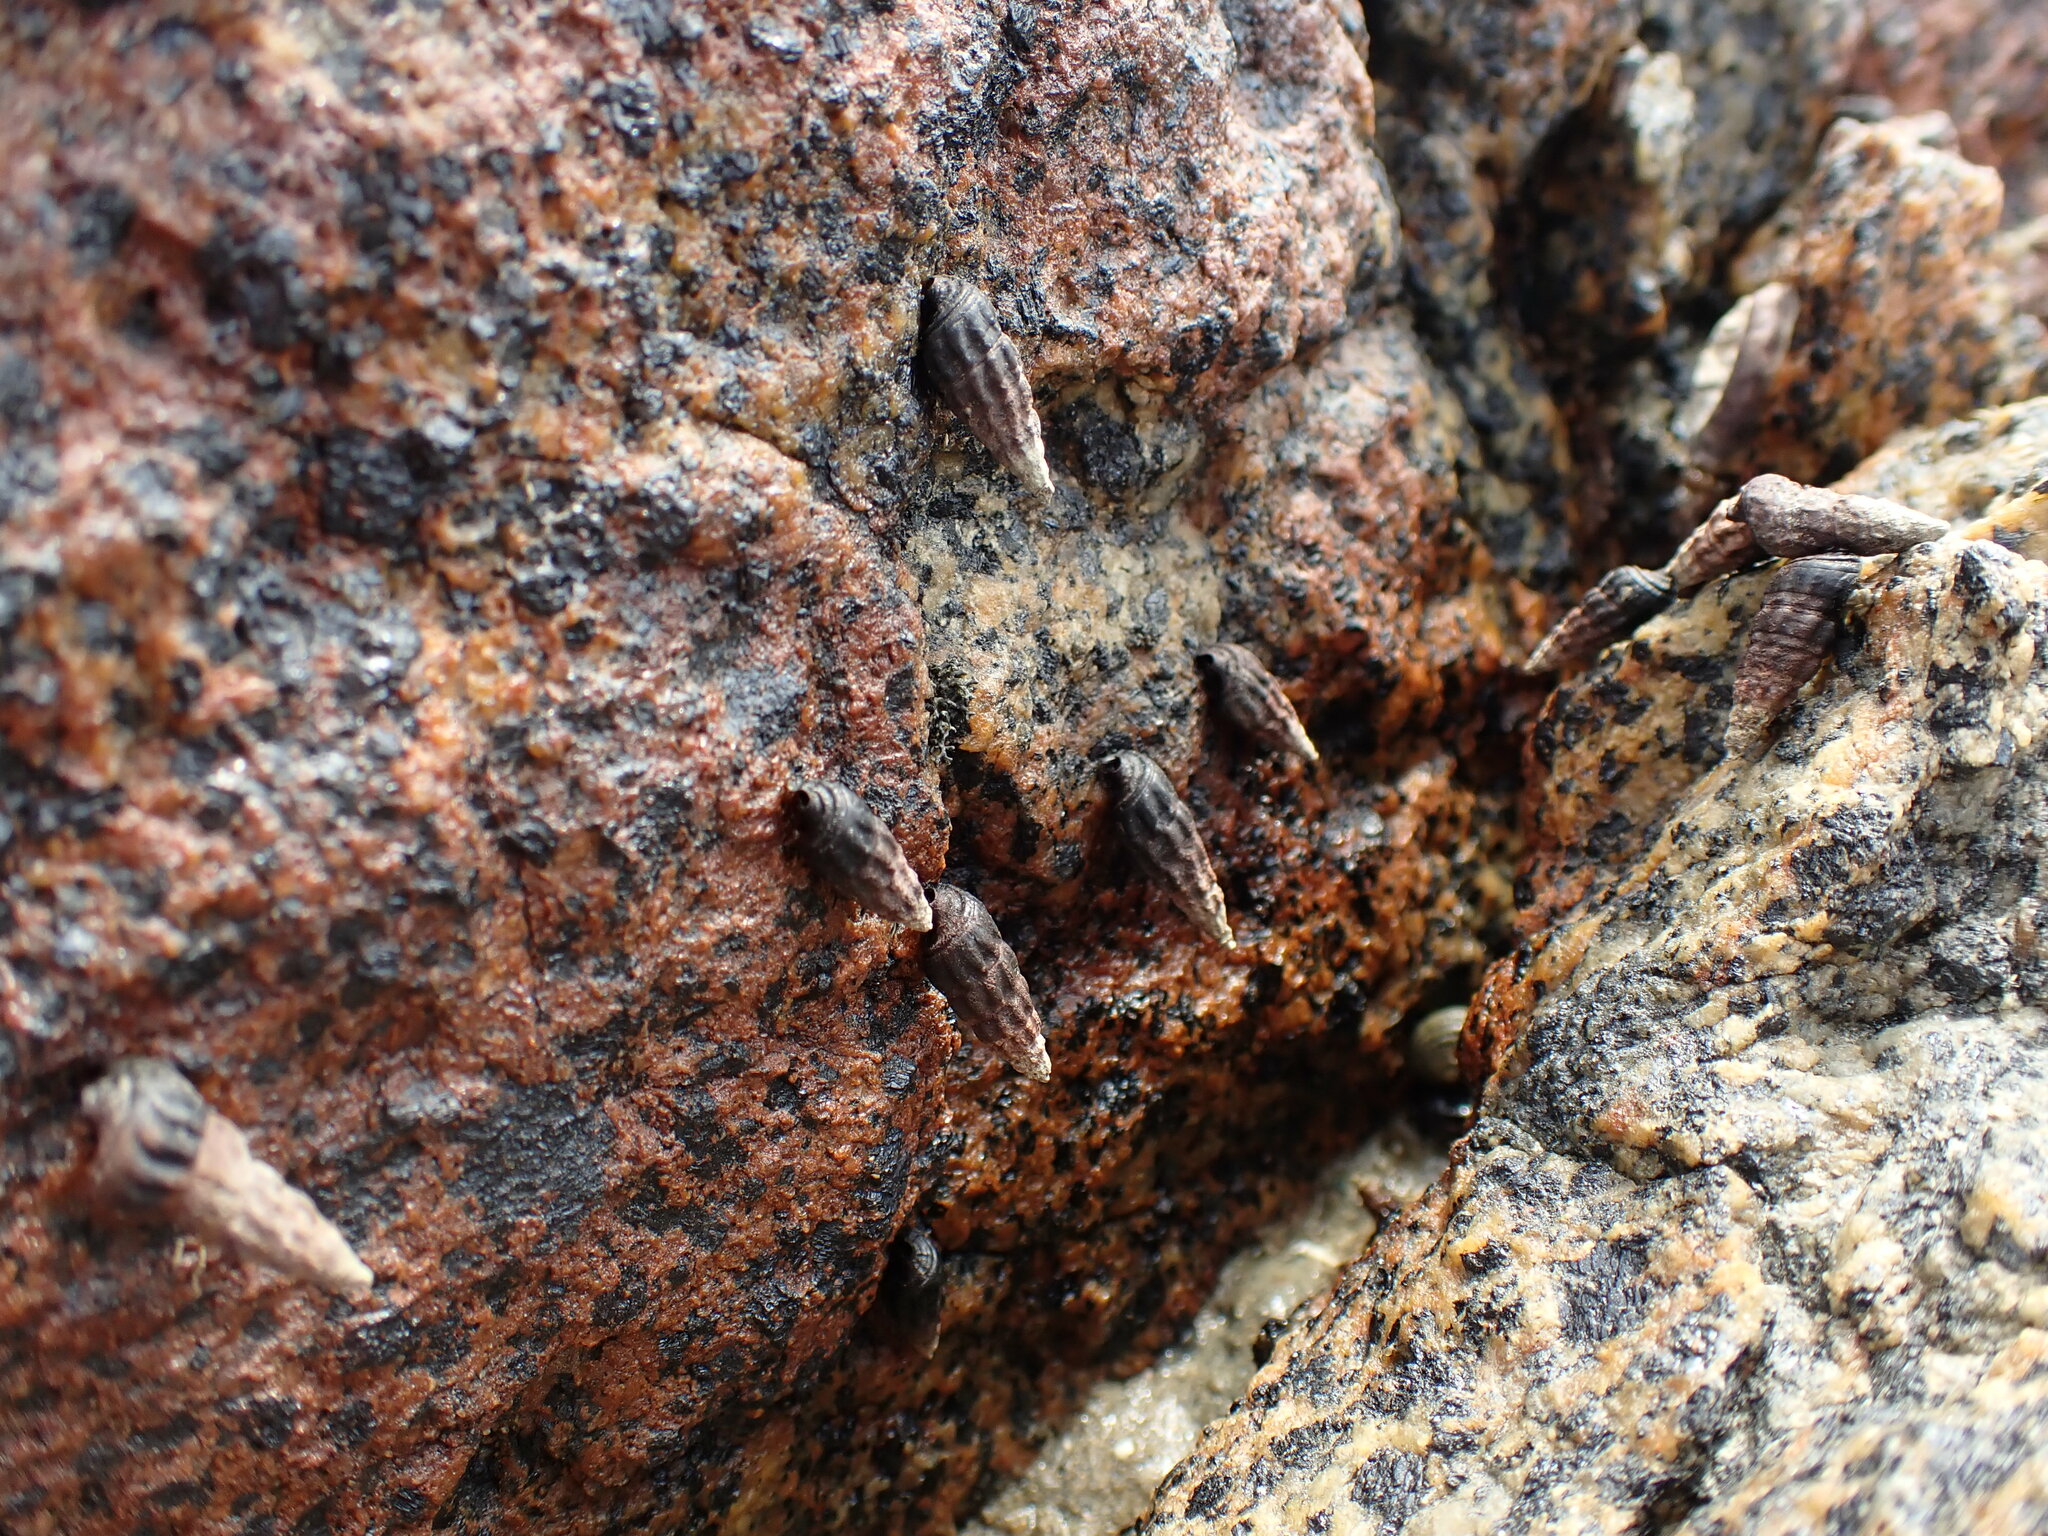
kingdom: Animalia
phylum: Mollusca
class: Gastropoda
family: Batillariidae
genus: Zeacumantus
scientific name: Zeacumantus subcarinatus
